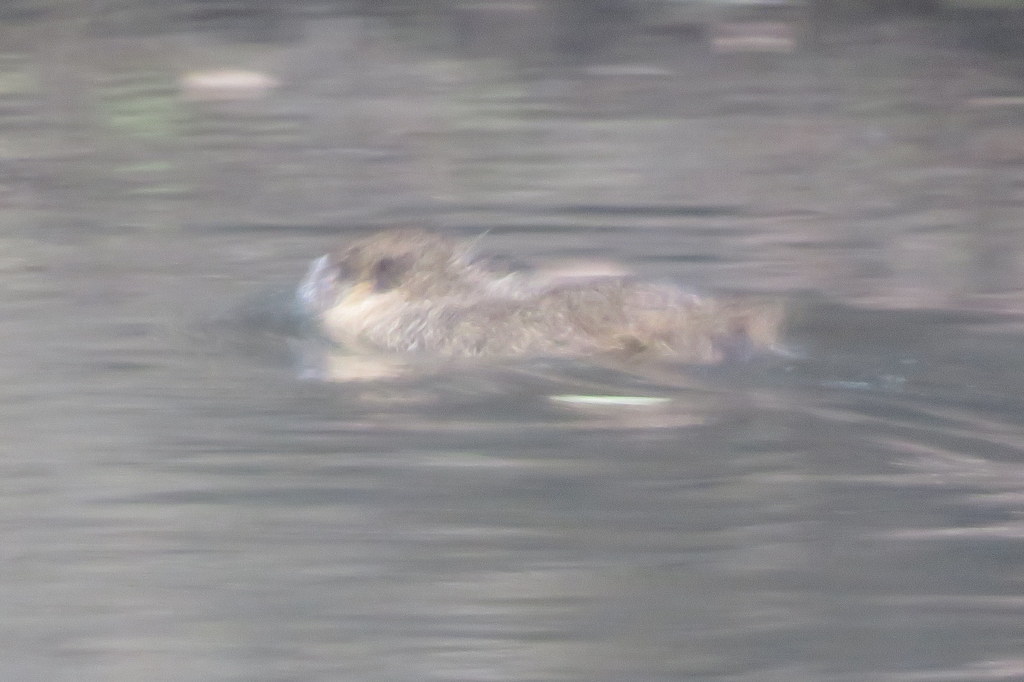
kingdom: Animalia
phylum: Chordata
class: Mammalia
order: Rodentia
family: Myocastoridae
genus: Myocastor
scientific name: Myocastor coypus
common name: Coypu
